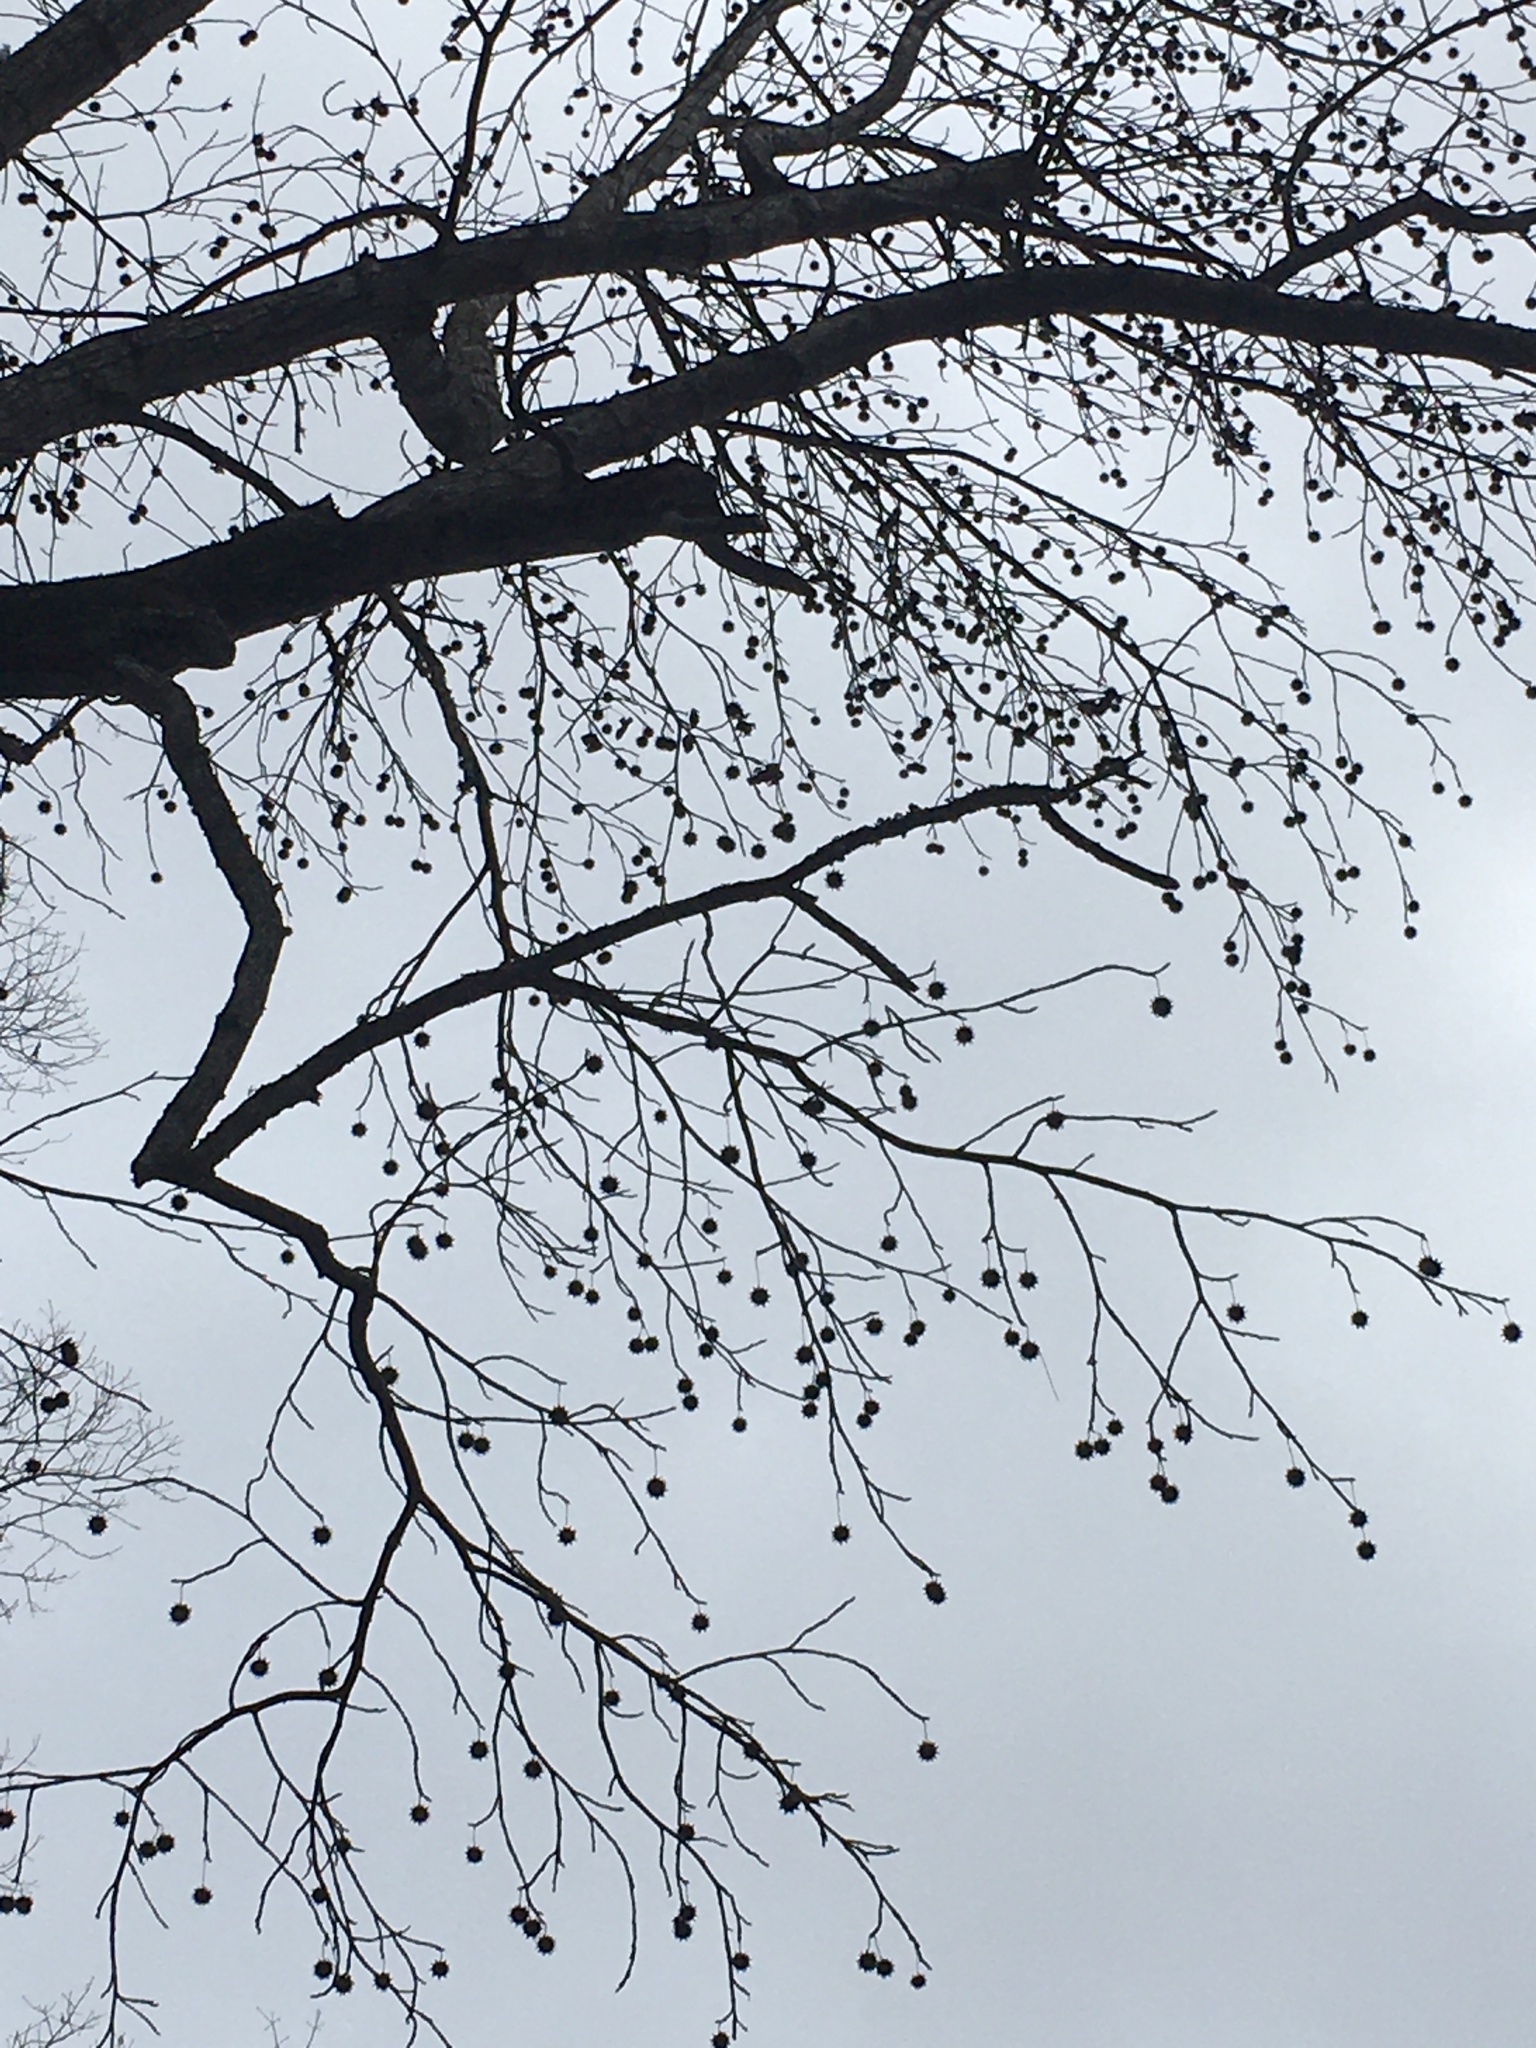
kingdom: Plantae
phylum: Tracheophyta
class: Magnoliopsida
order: Saxifragales
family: Altingiaceae
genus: Liquidambar
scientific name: Liquidambar styraciflua
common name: Sweet gum
